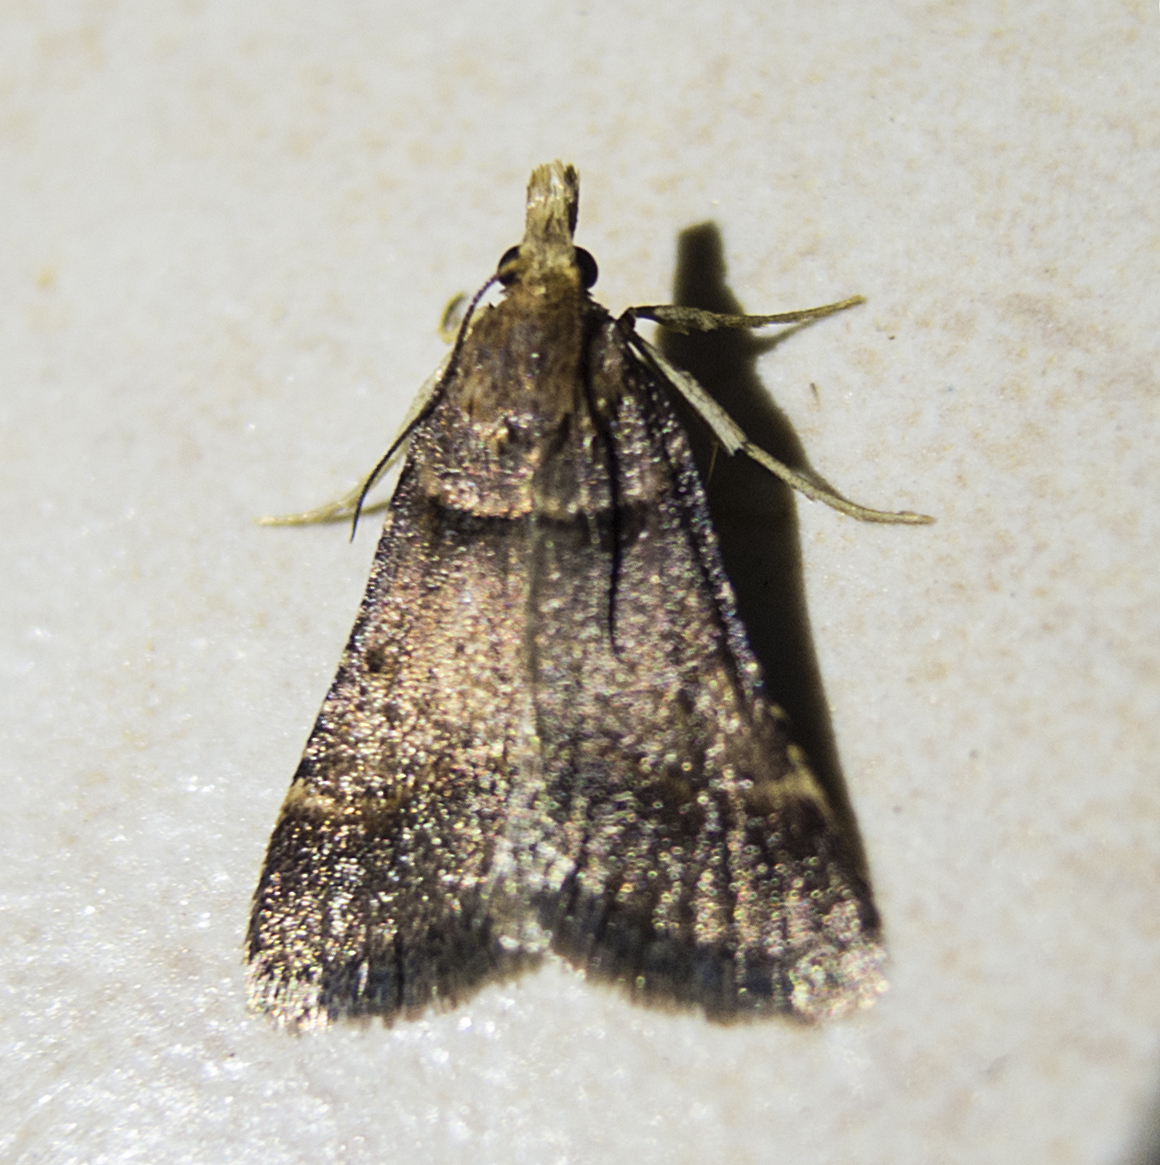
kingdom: Animalia
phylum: Arthropoda
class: Insecta
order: Lepidoptera
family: Pyralidae
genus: Stemmatophora
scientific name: Stemmatophora brunnealis
